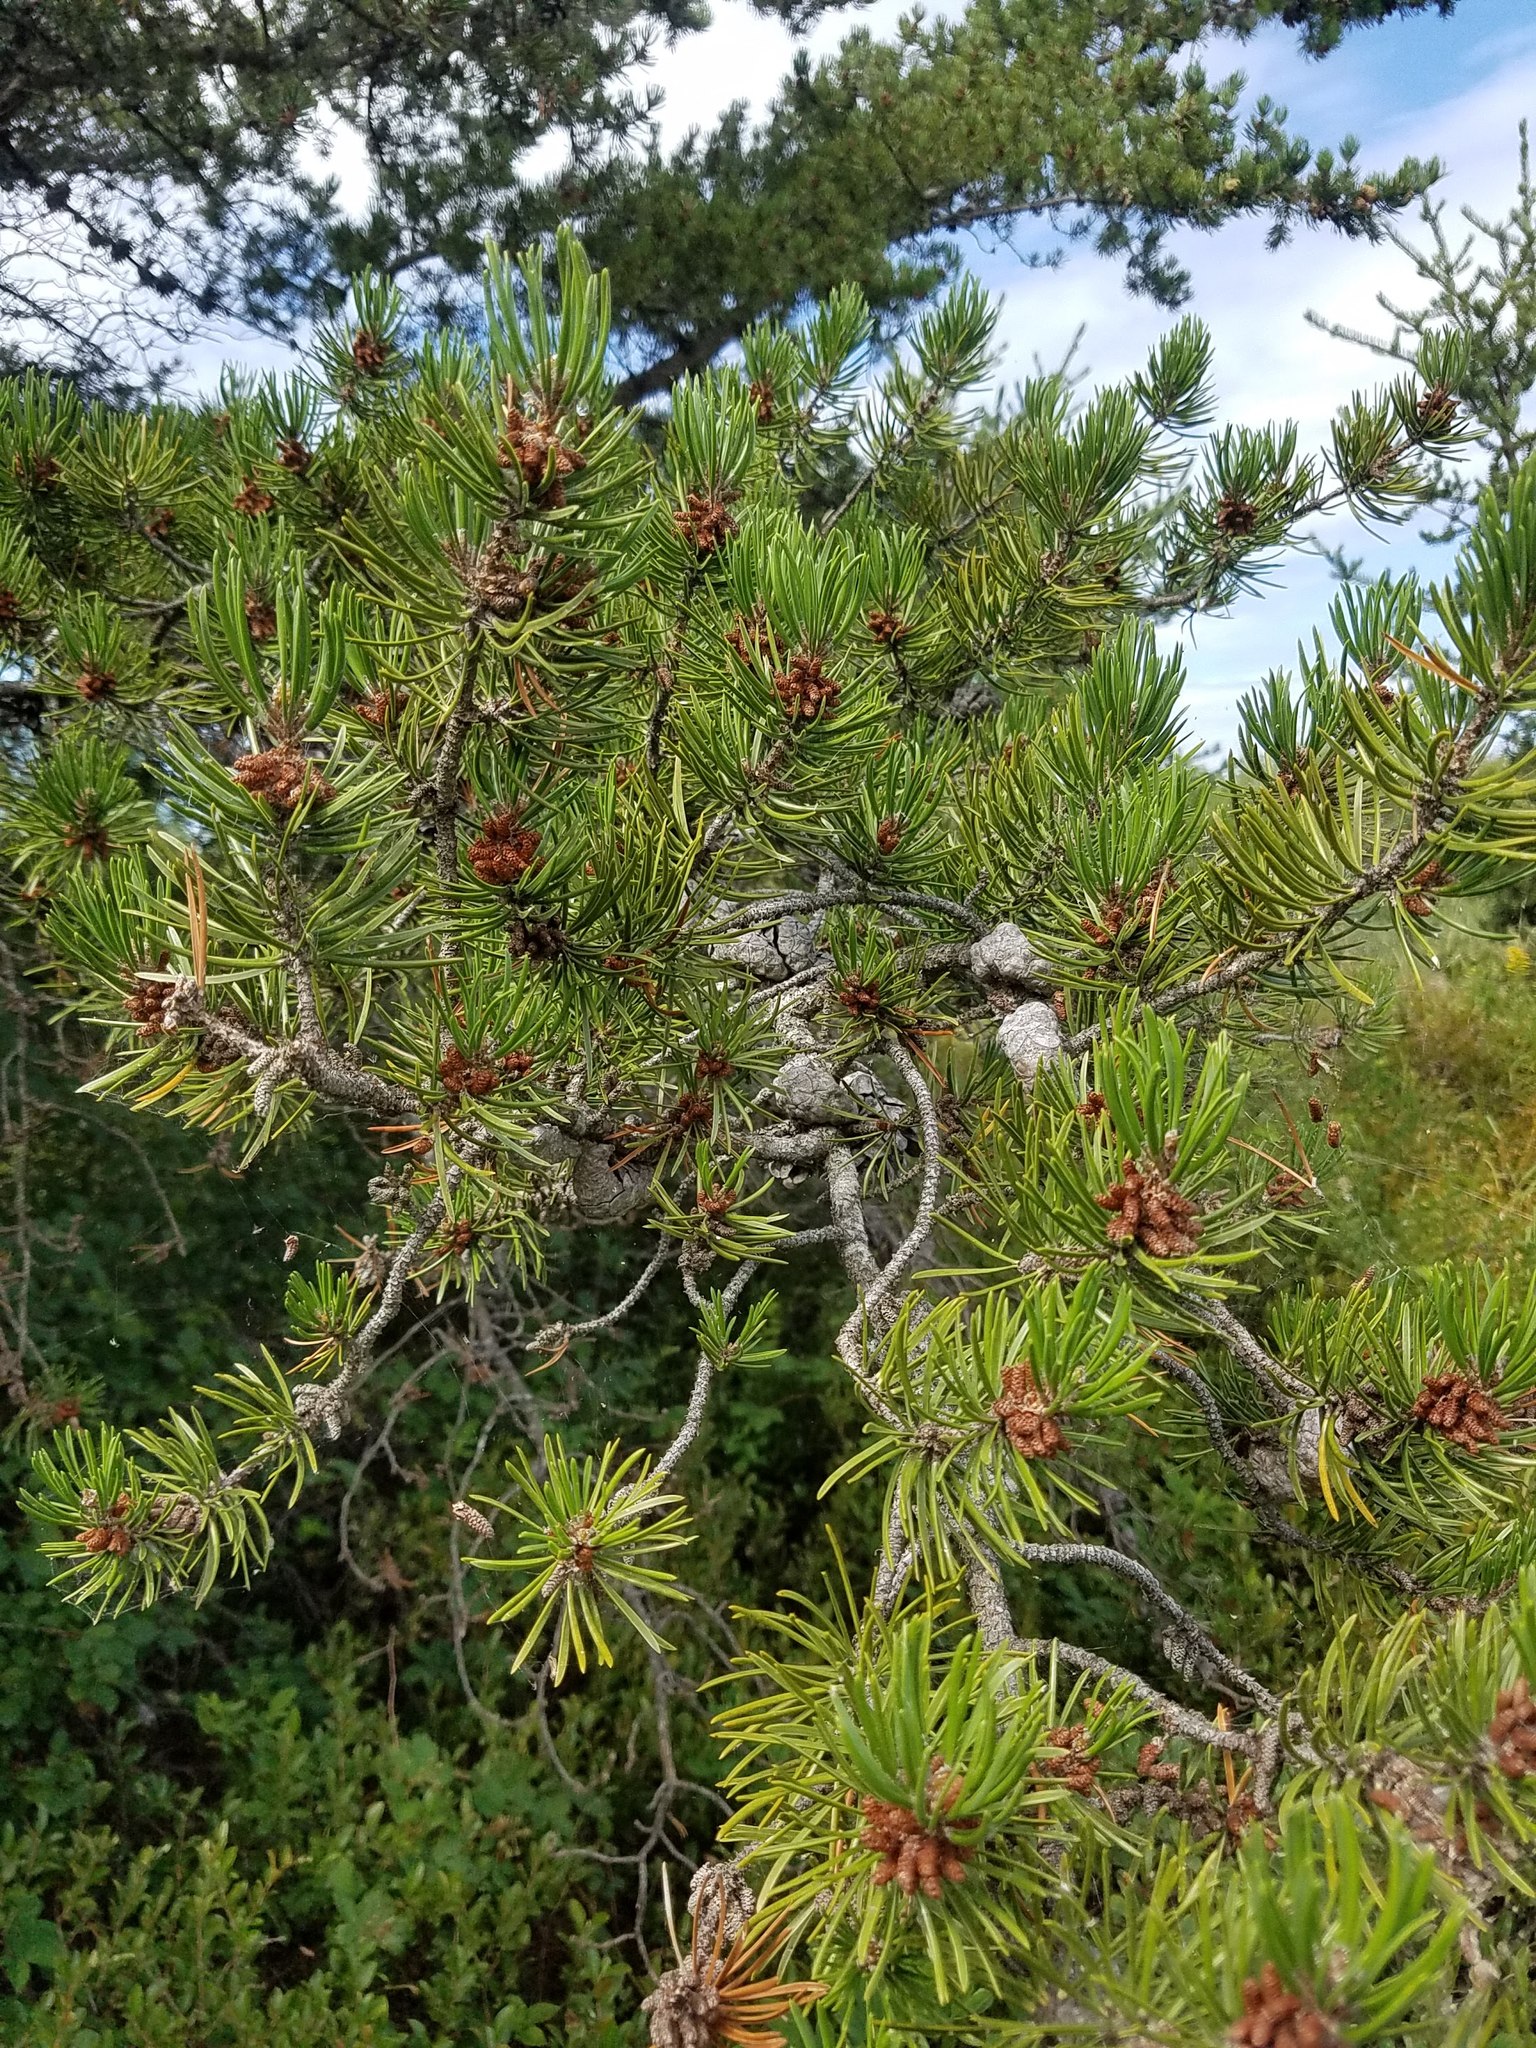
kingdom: Plantae
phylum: Tracheophyta
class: Pinopsida
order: Pinales
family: Pinaceae
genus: Pinus
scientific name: Pinus banksiana
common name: Jack pine
